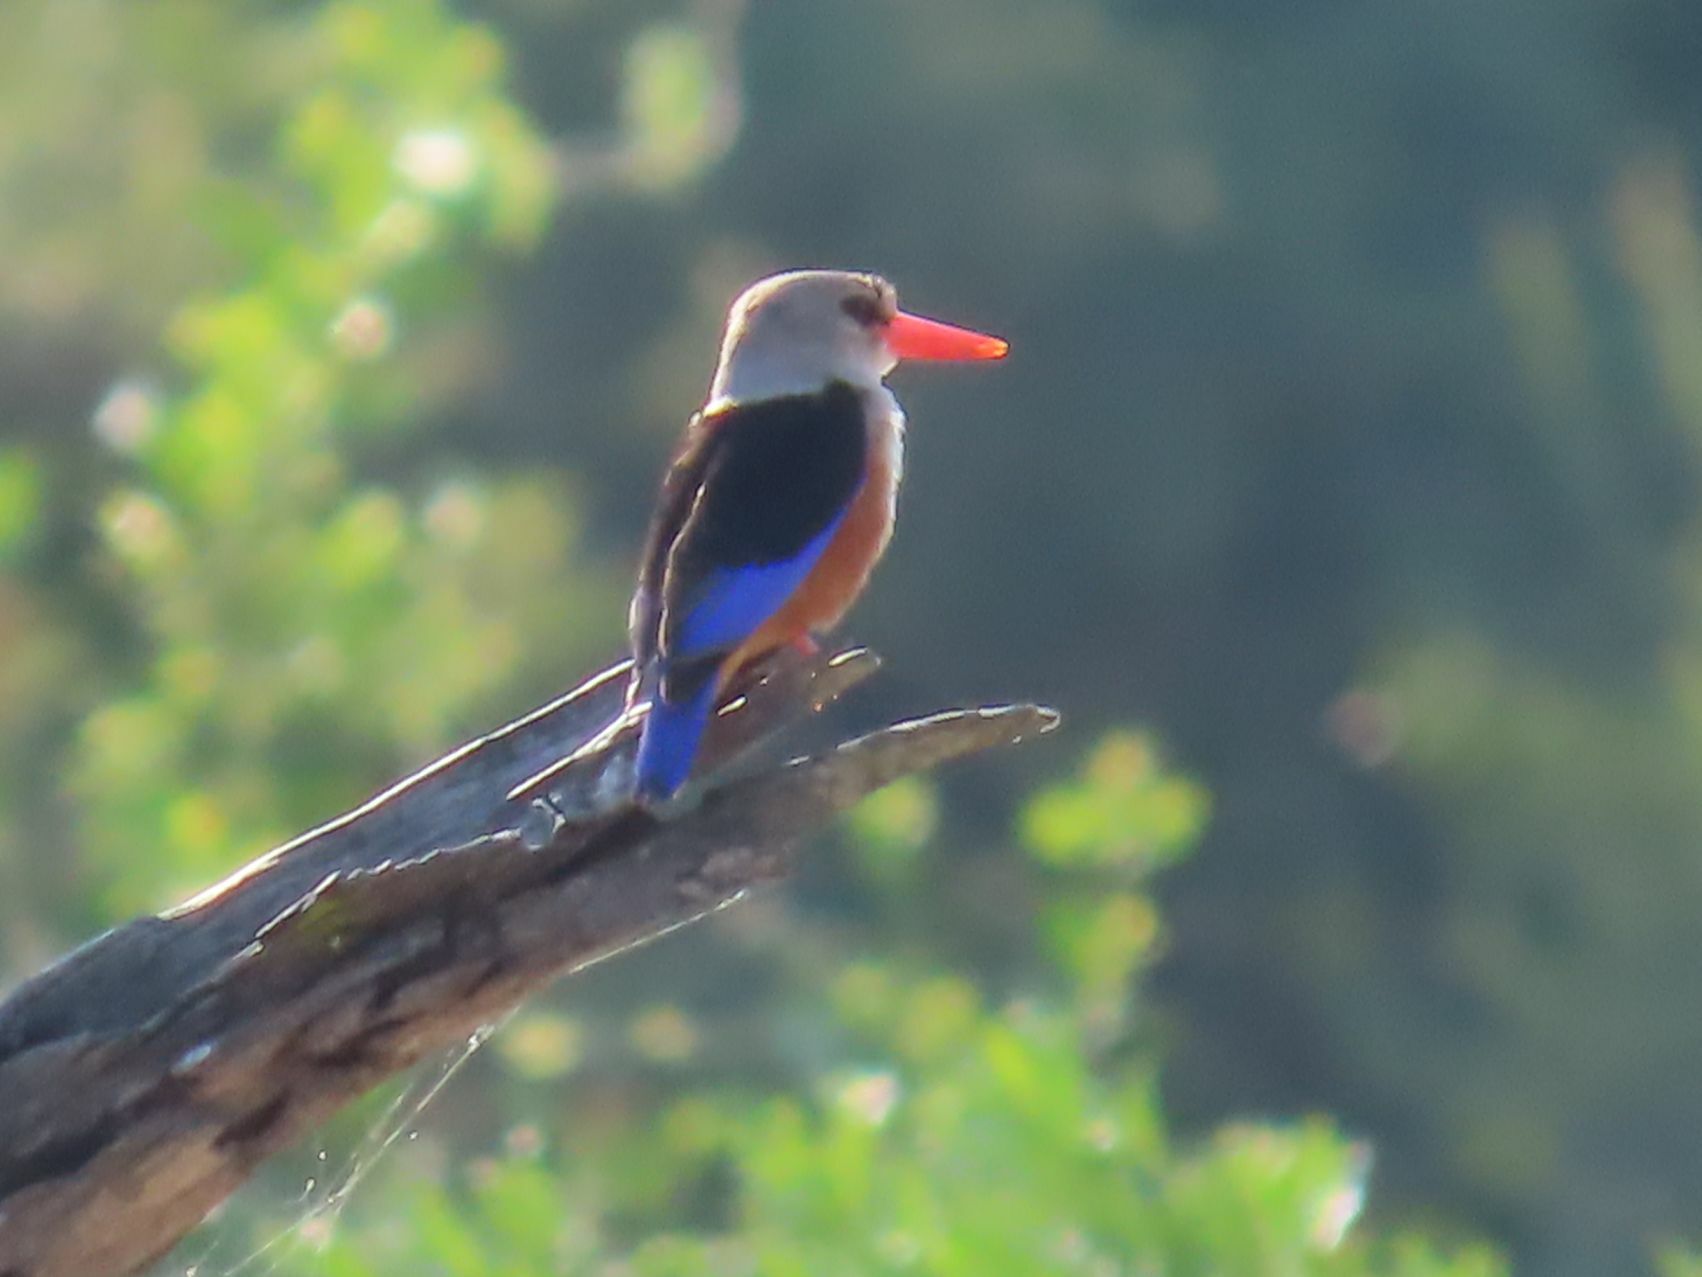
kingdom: Animalia
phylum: Chordata
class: Aves
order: Coraciiformes
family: Alcedinidae
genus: Halcyon
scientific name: Halcyon leucocephala
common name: Grey-headed kingfisher
